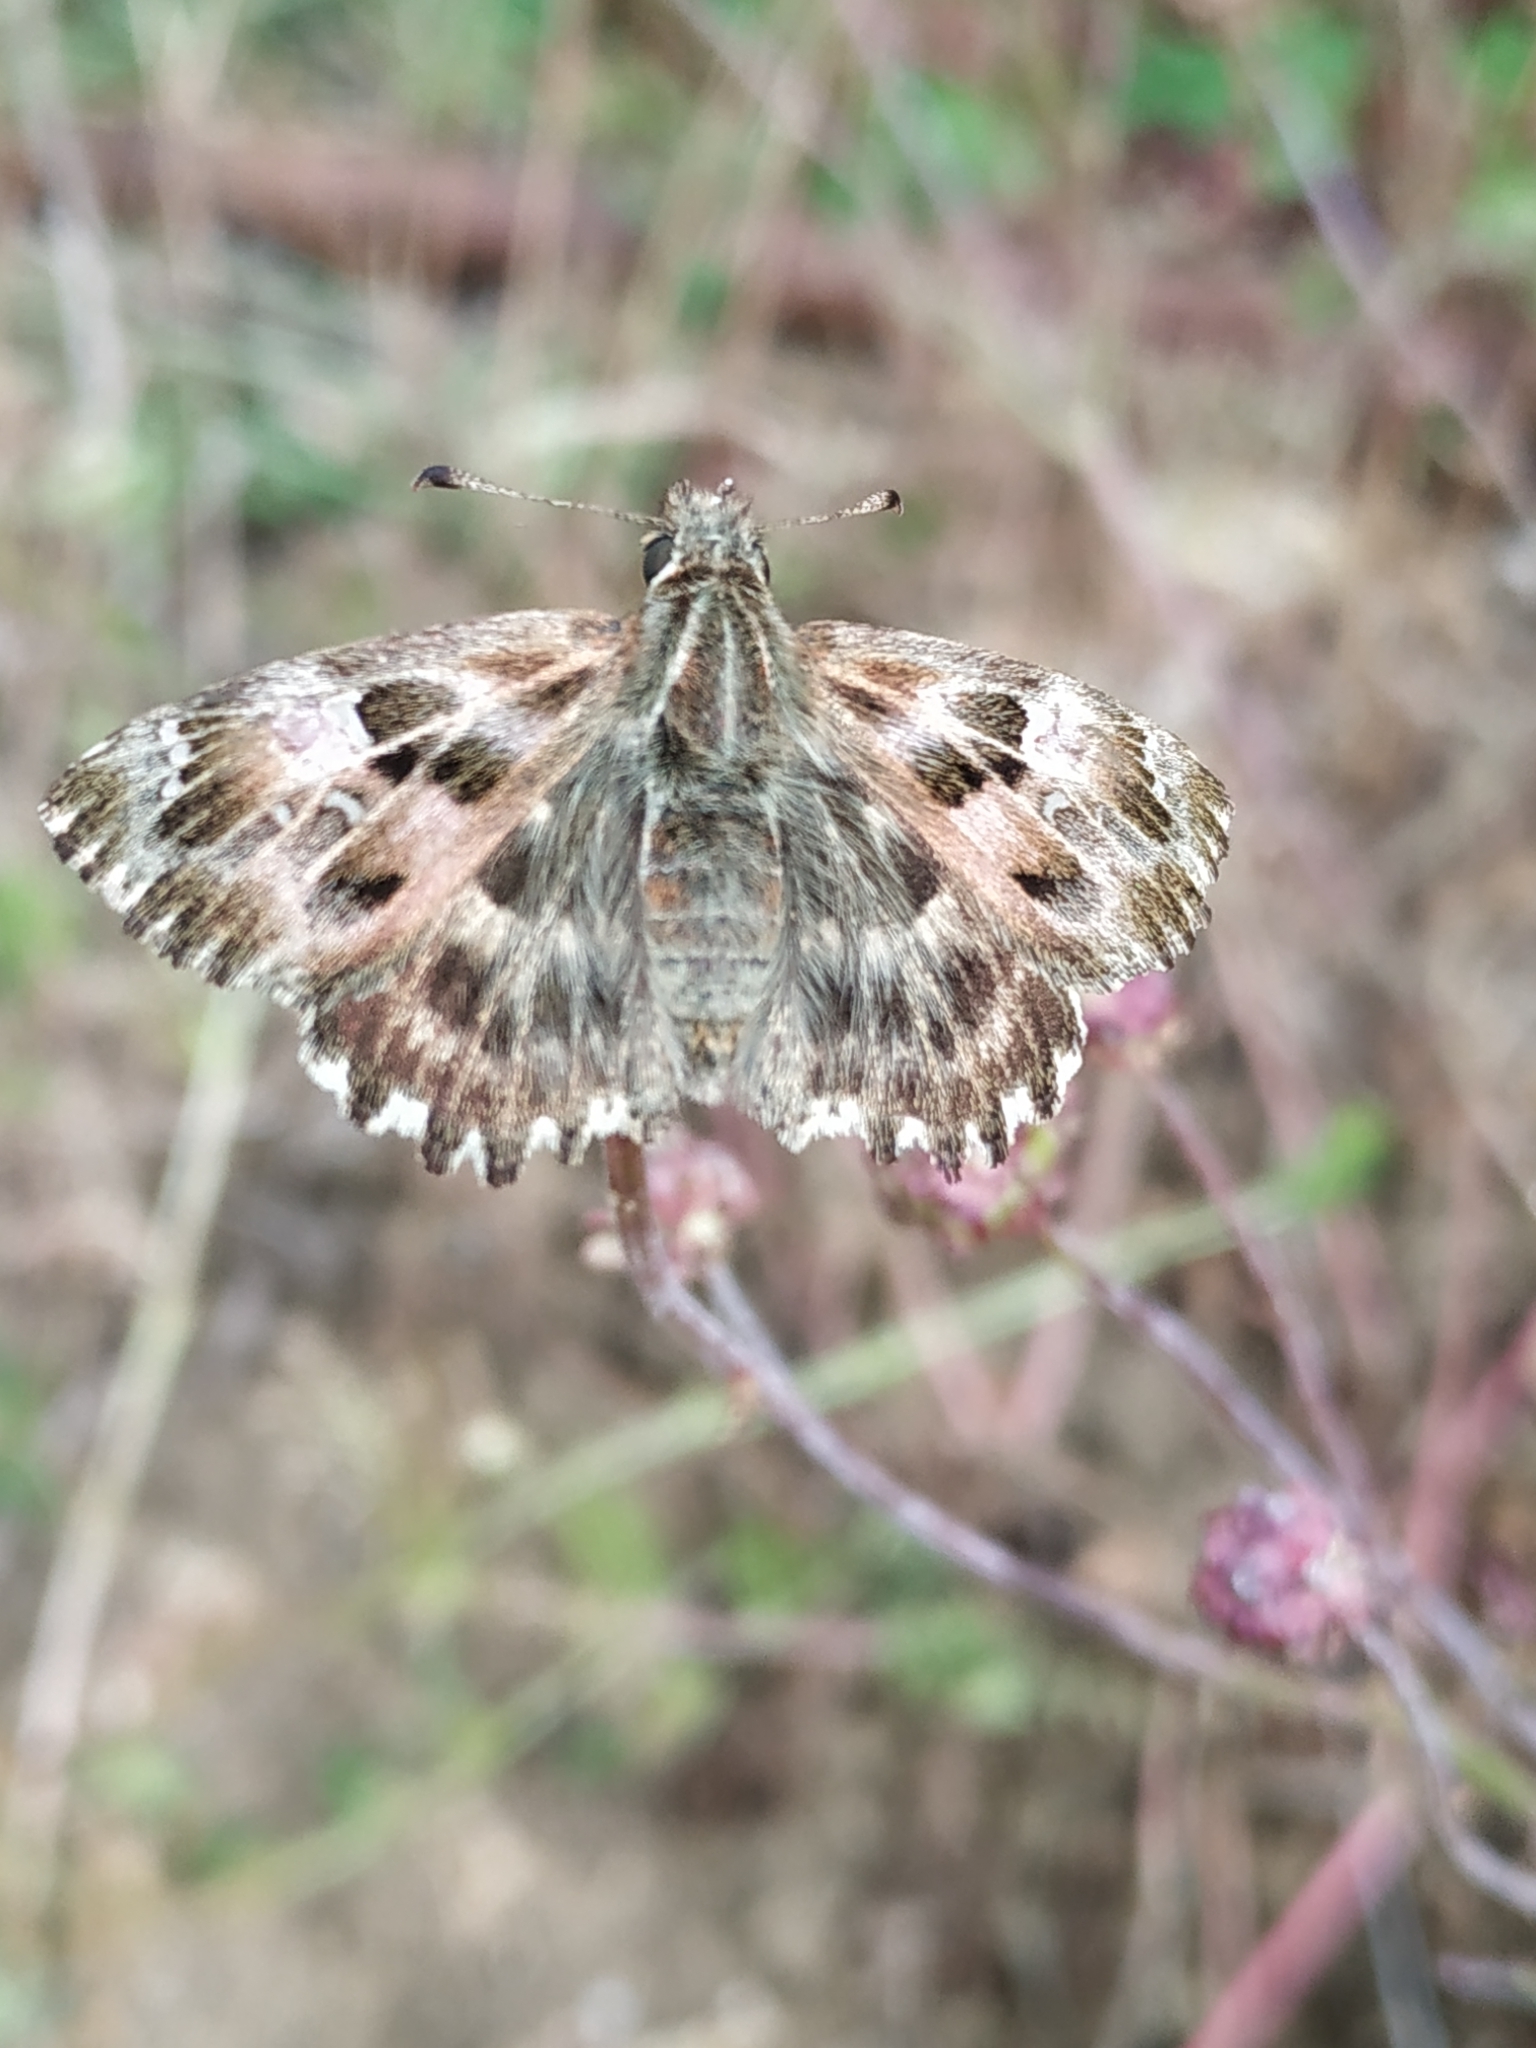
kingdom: Animalia
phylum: Arthropoda
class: Insecta
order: Lepidoptera
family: Hesperiidae
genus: Carcharodus
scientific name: Carcharodus alceae
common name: Mallow skipper
